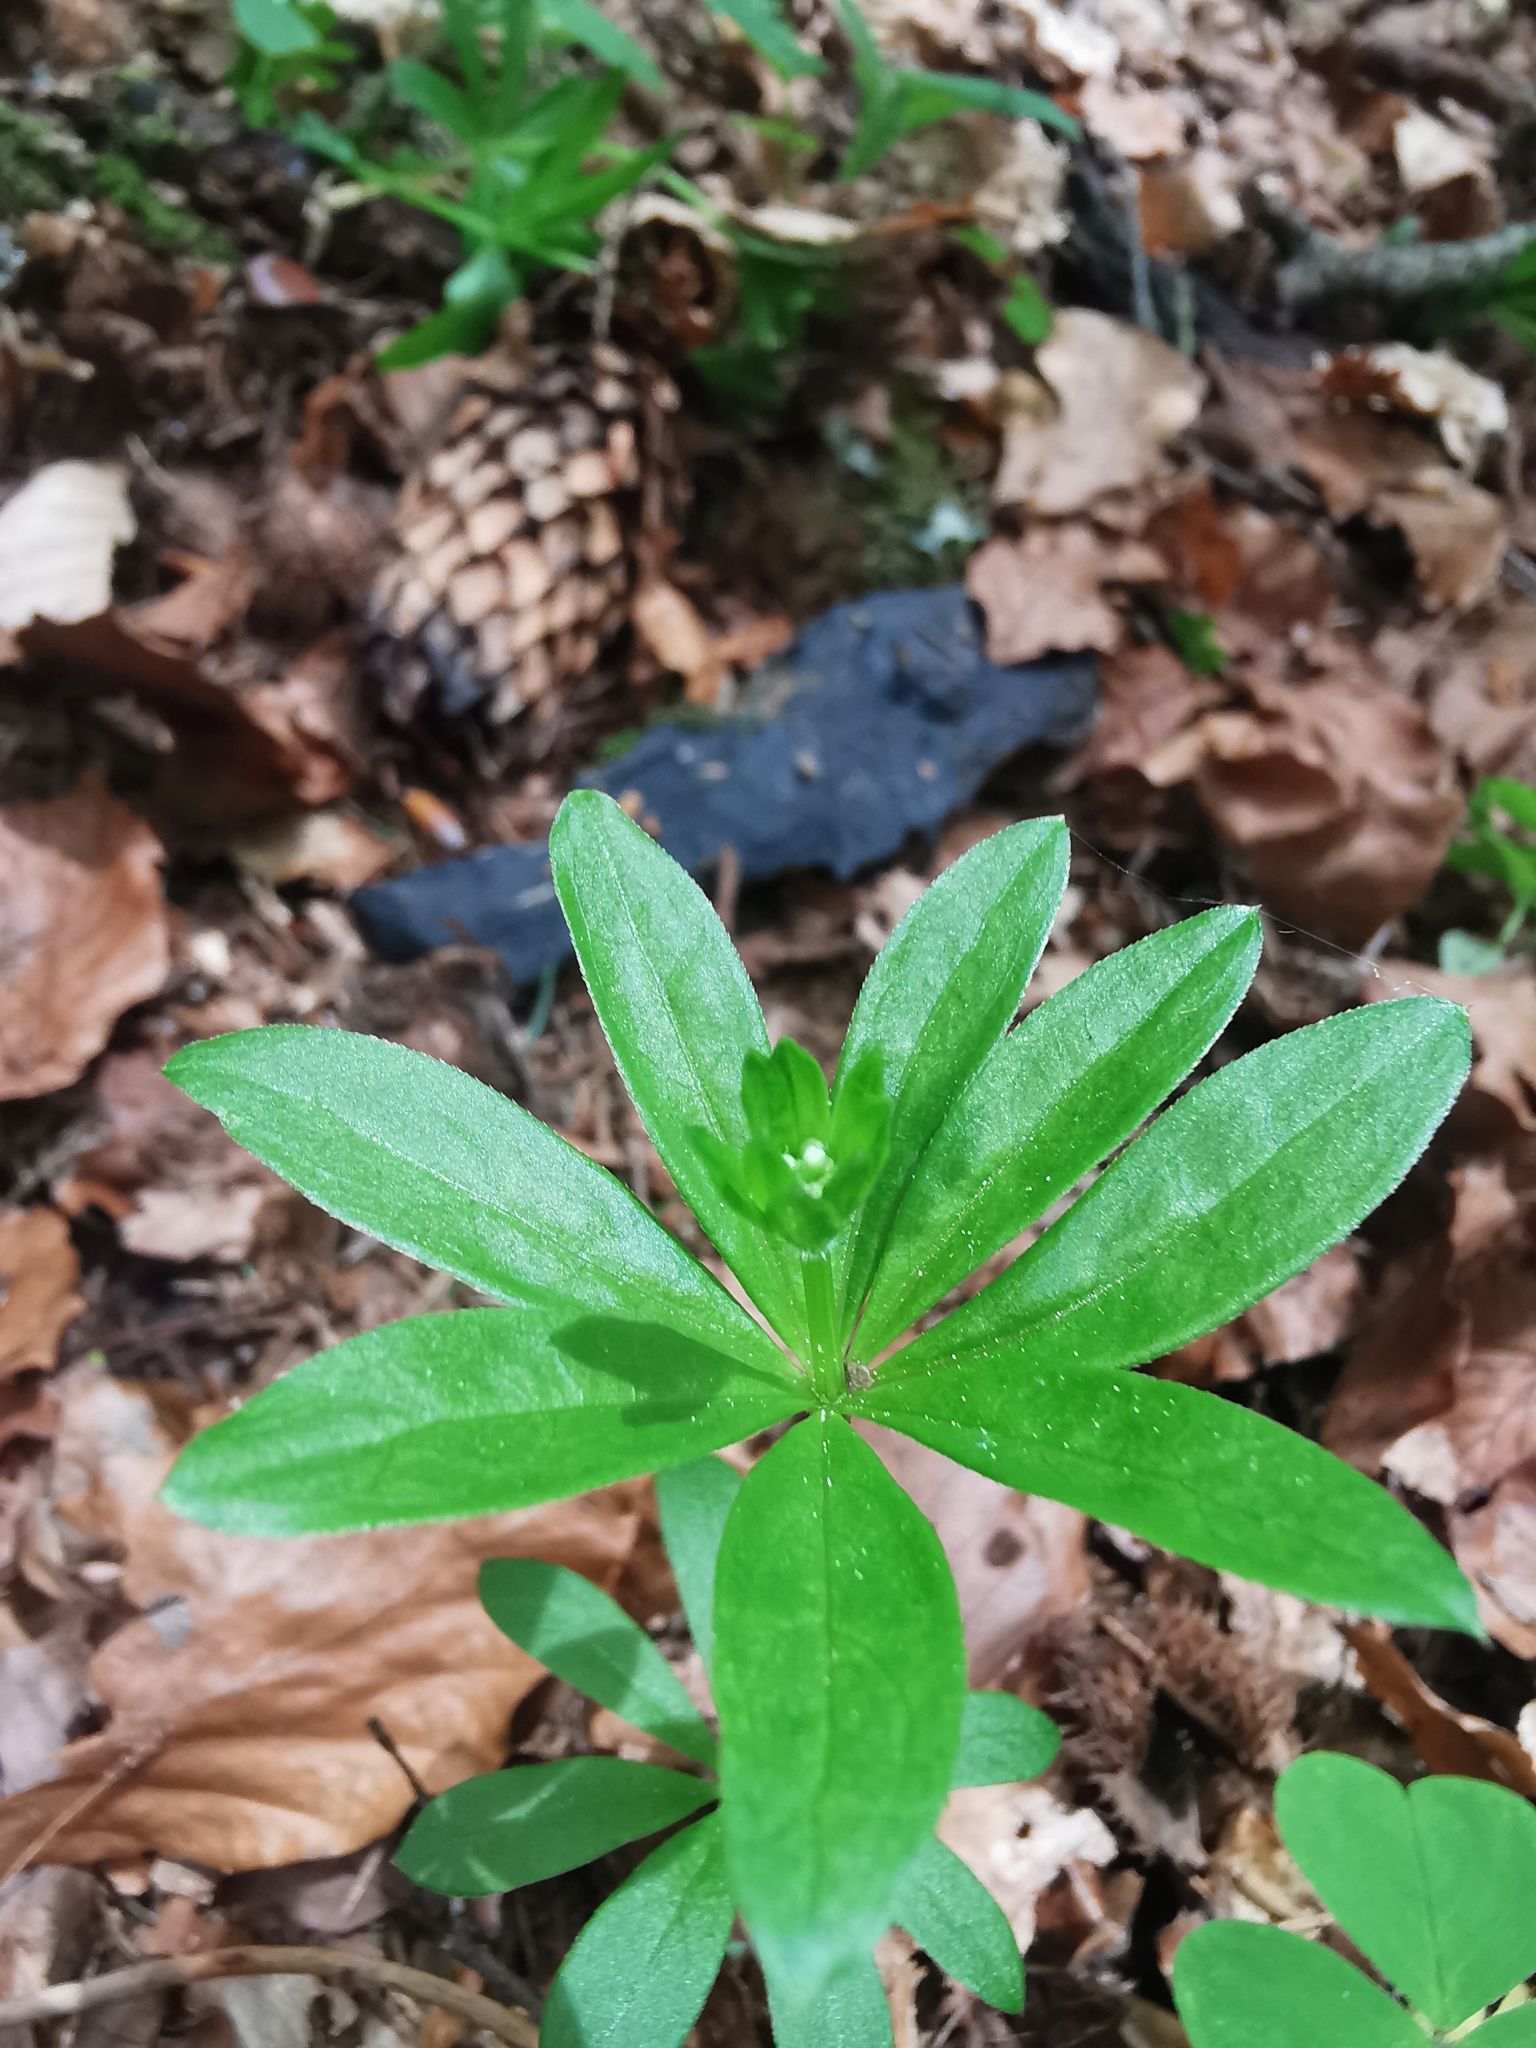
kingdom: Plantae
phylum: Tracheophyta
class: Magnoliopsida
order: Gentianales
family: Rubiaceae
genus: Galium
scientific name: Galium odoratum
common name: Sweet woodruff
